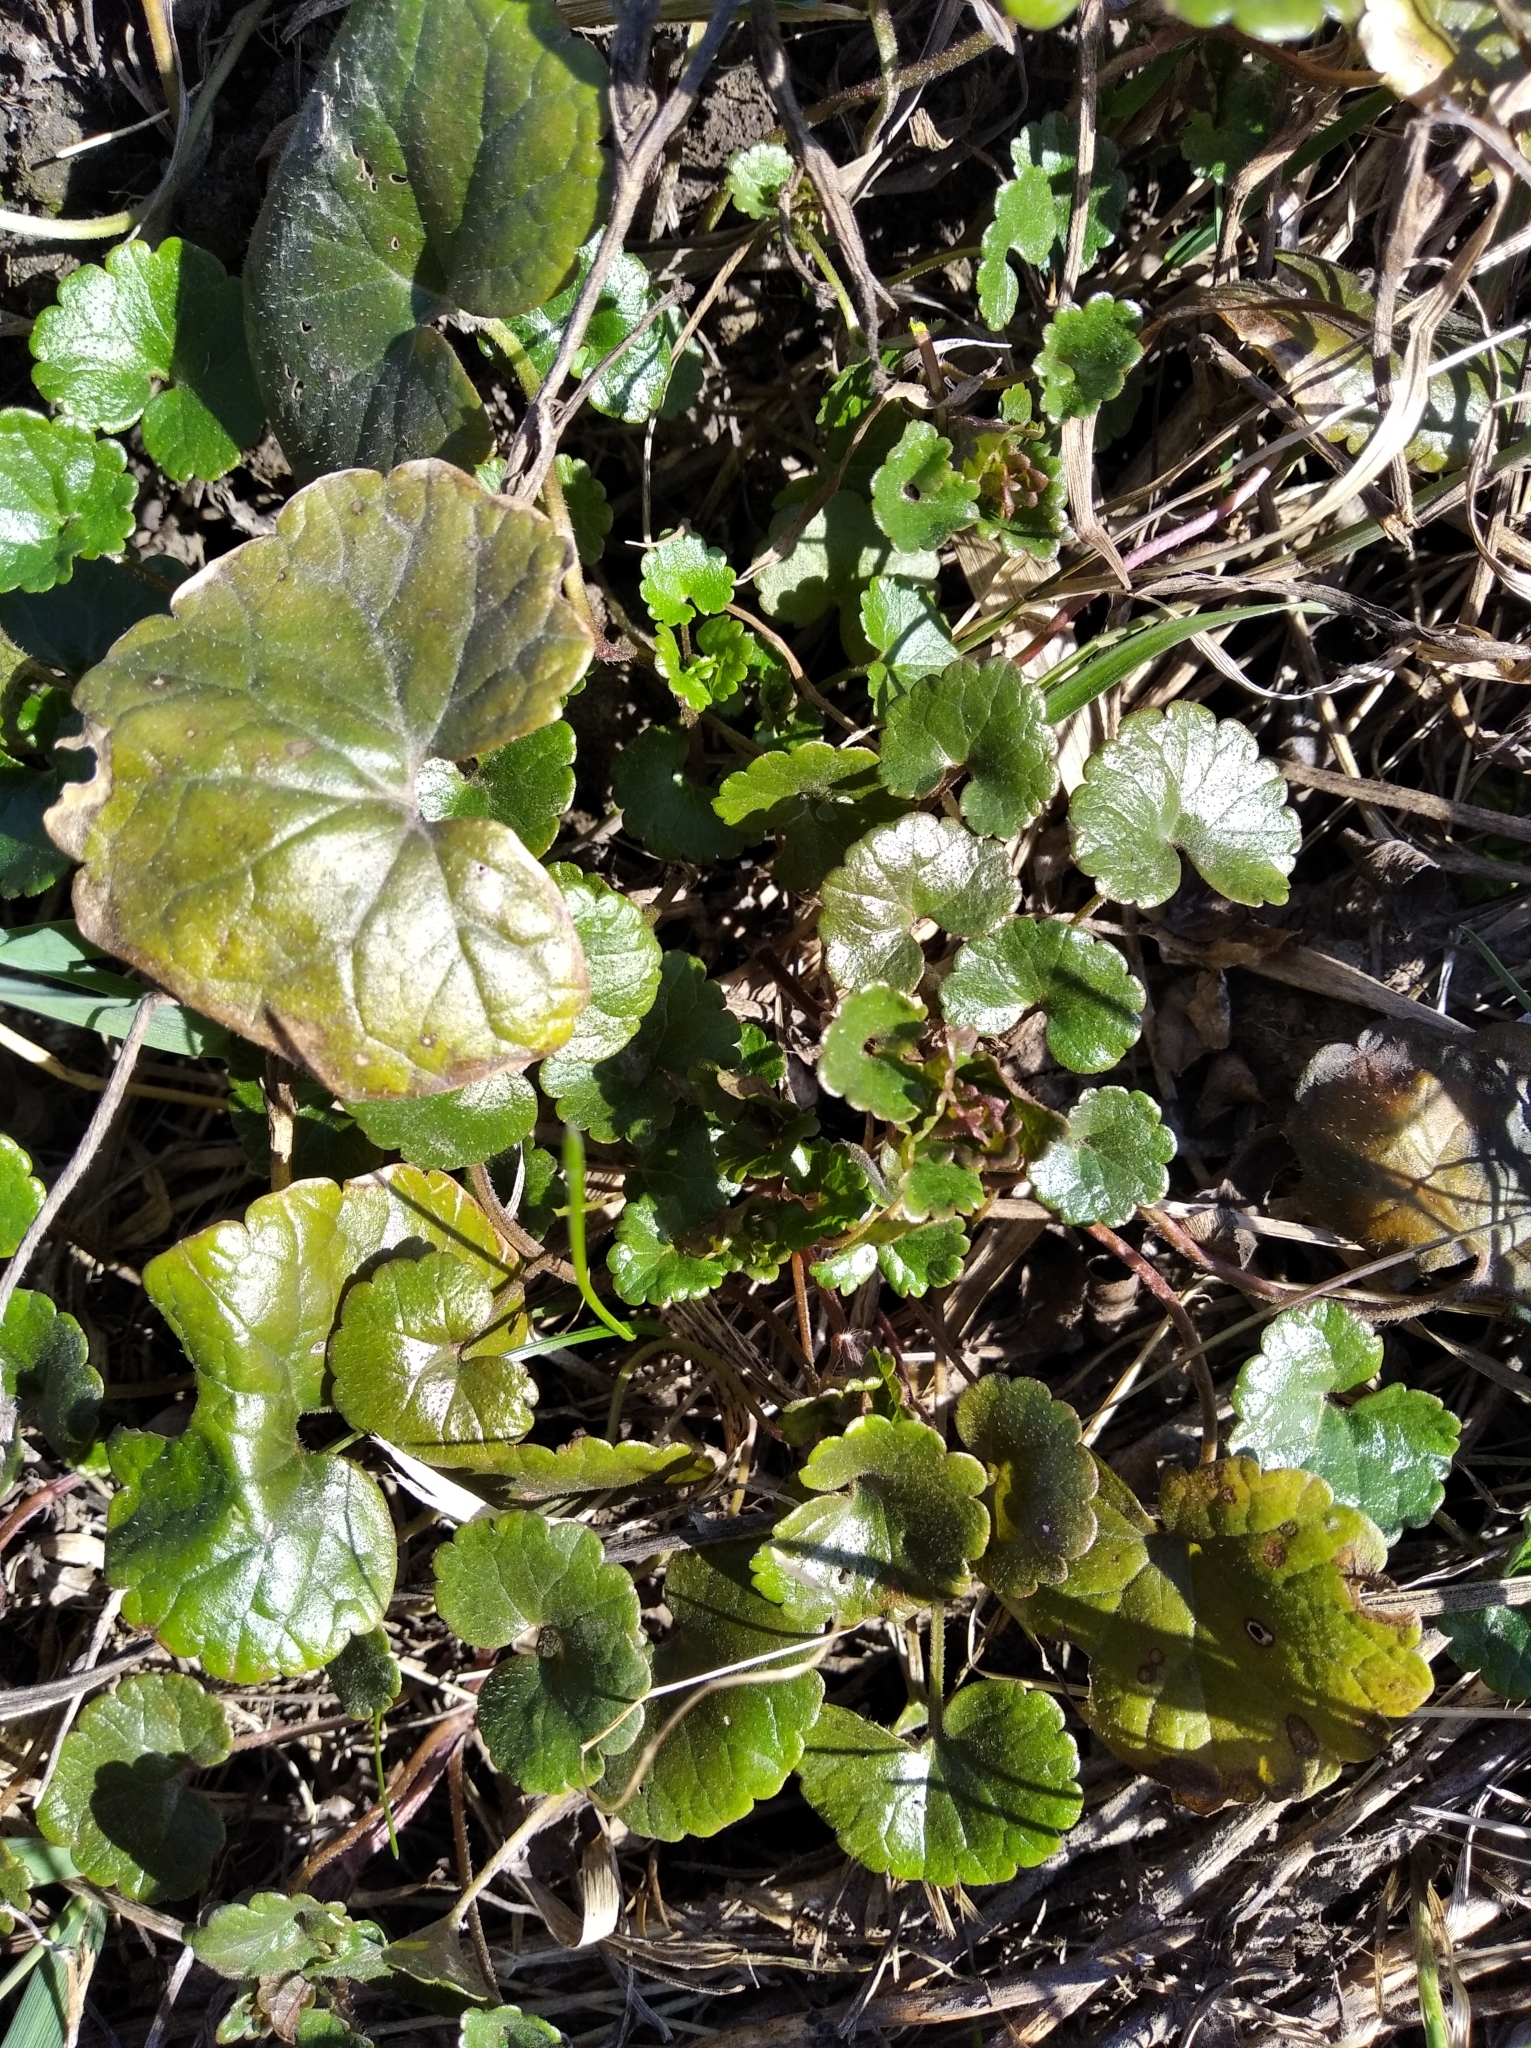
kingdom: Plantae
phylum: Tracheophyta
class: Magnoliopsida
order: Lamiales
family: Lamiaceae
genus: Glechoma
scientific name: Glechoma hederacea
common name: Ground ivy
